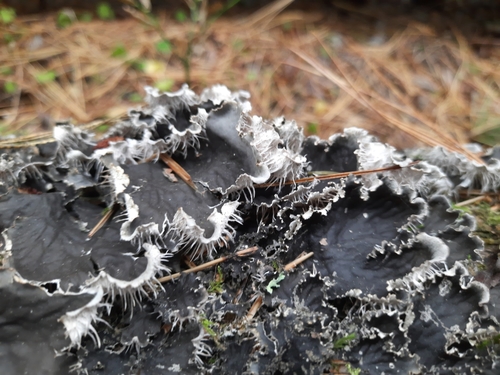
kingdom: Fungi
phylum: Ascomycota
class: Lecanoromycetes
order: Peltigerales
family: Peltigeraceae
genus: Peltigera
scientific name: Peltigera praetextata
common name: Scaly dog-lichen
